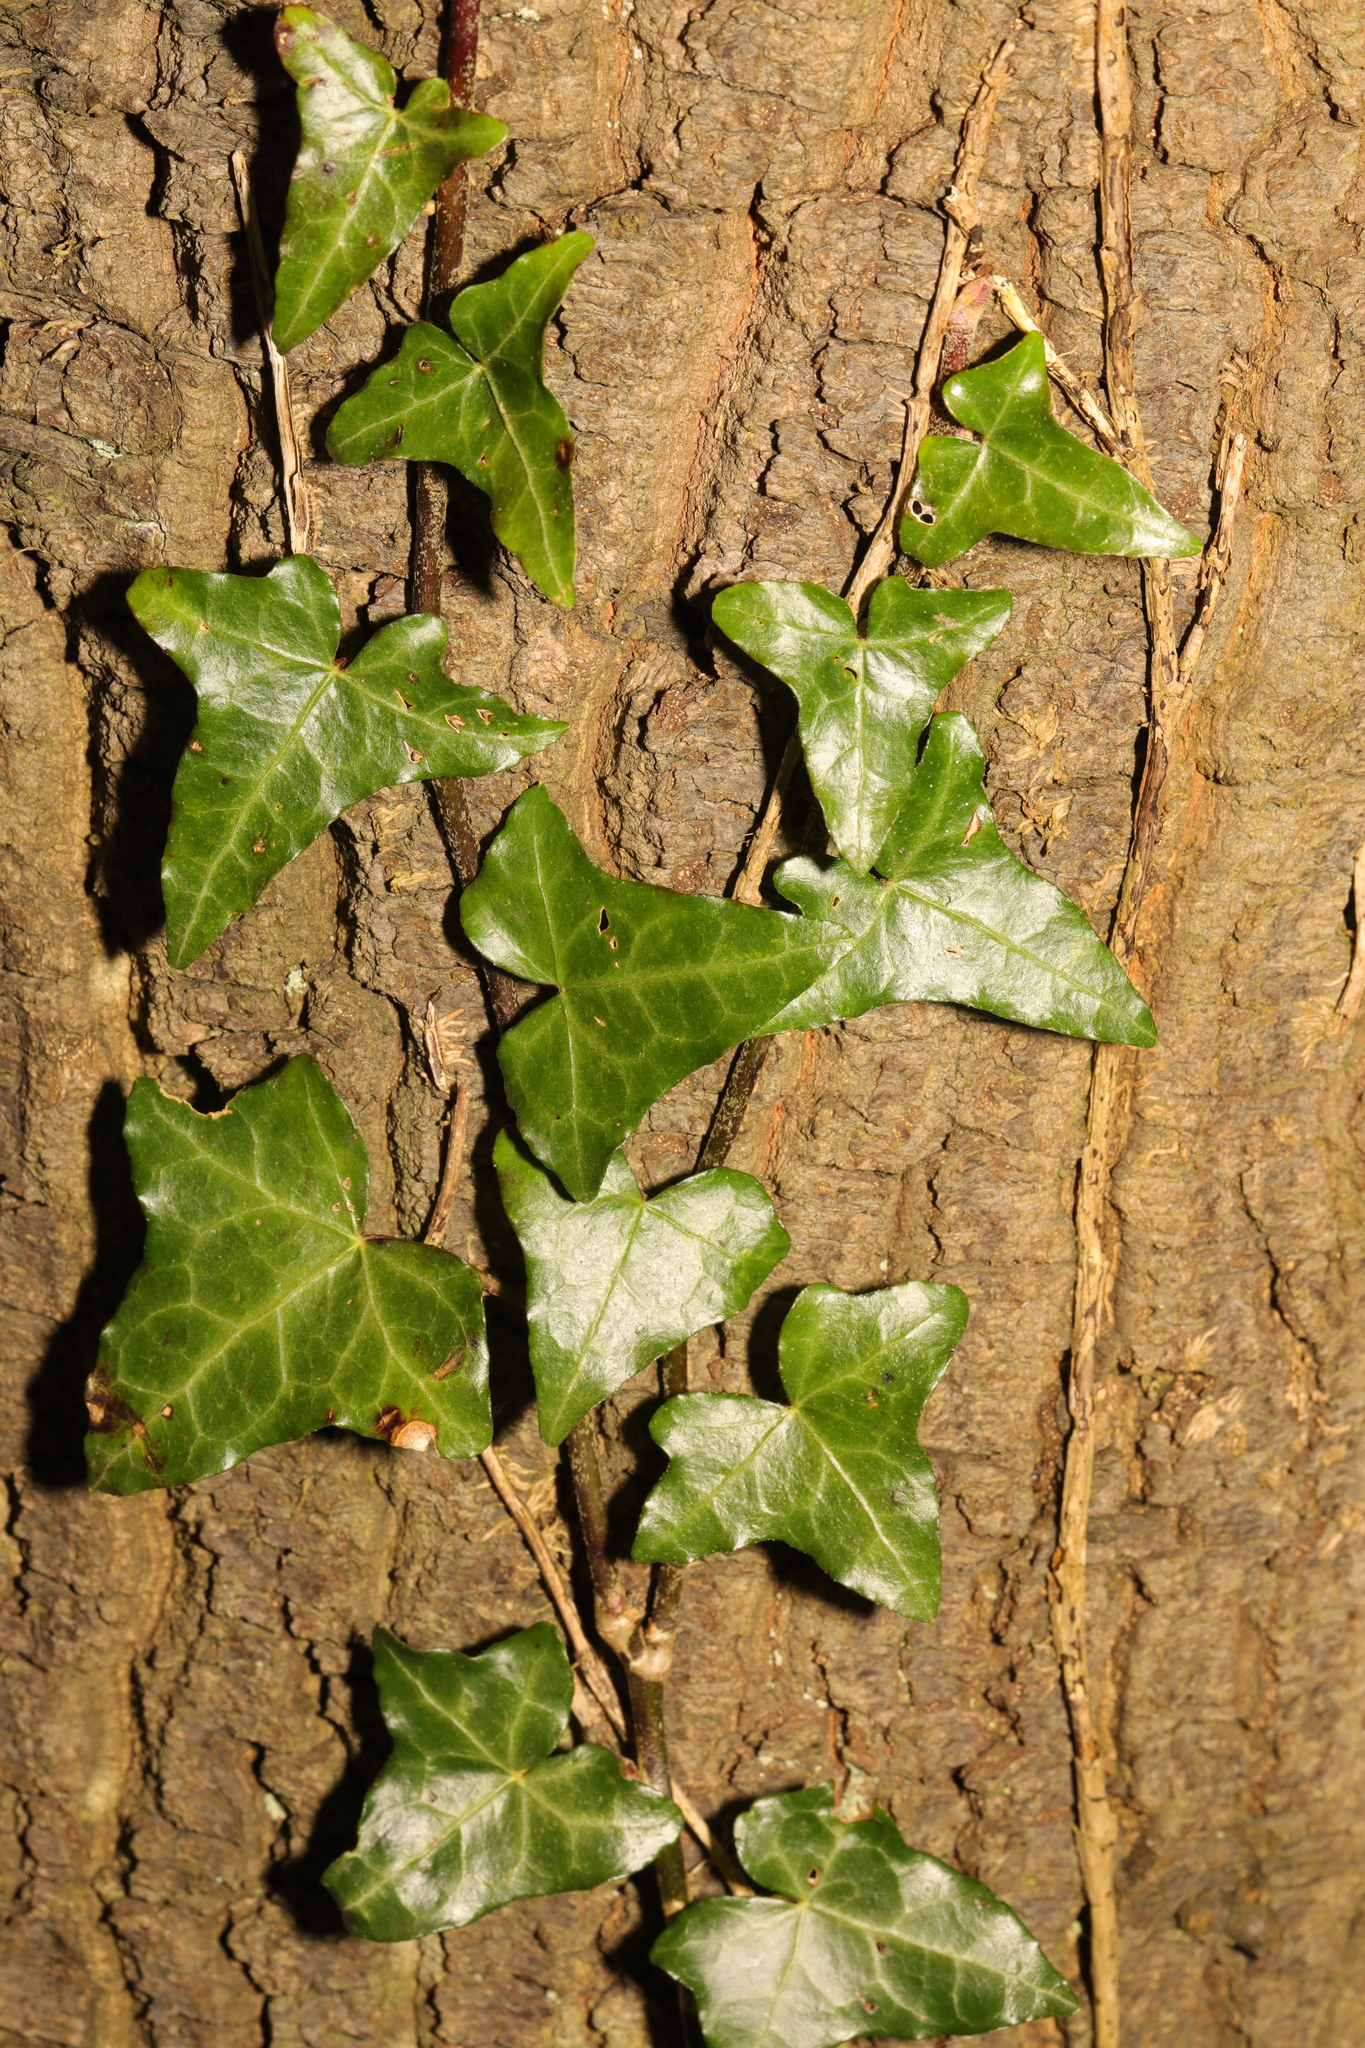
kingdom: Plantae
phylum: Tracheophyta
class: Magnoliopsida
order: Apiales
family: Araliaceae
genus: Hedera
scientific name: Hedera helix
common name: Ivy
